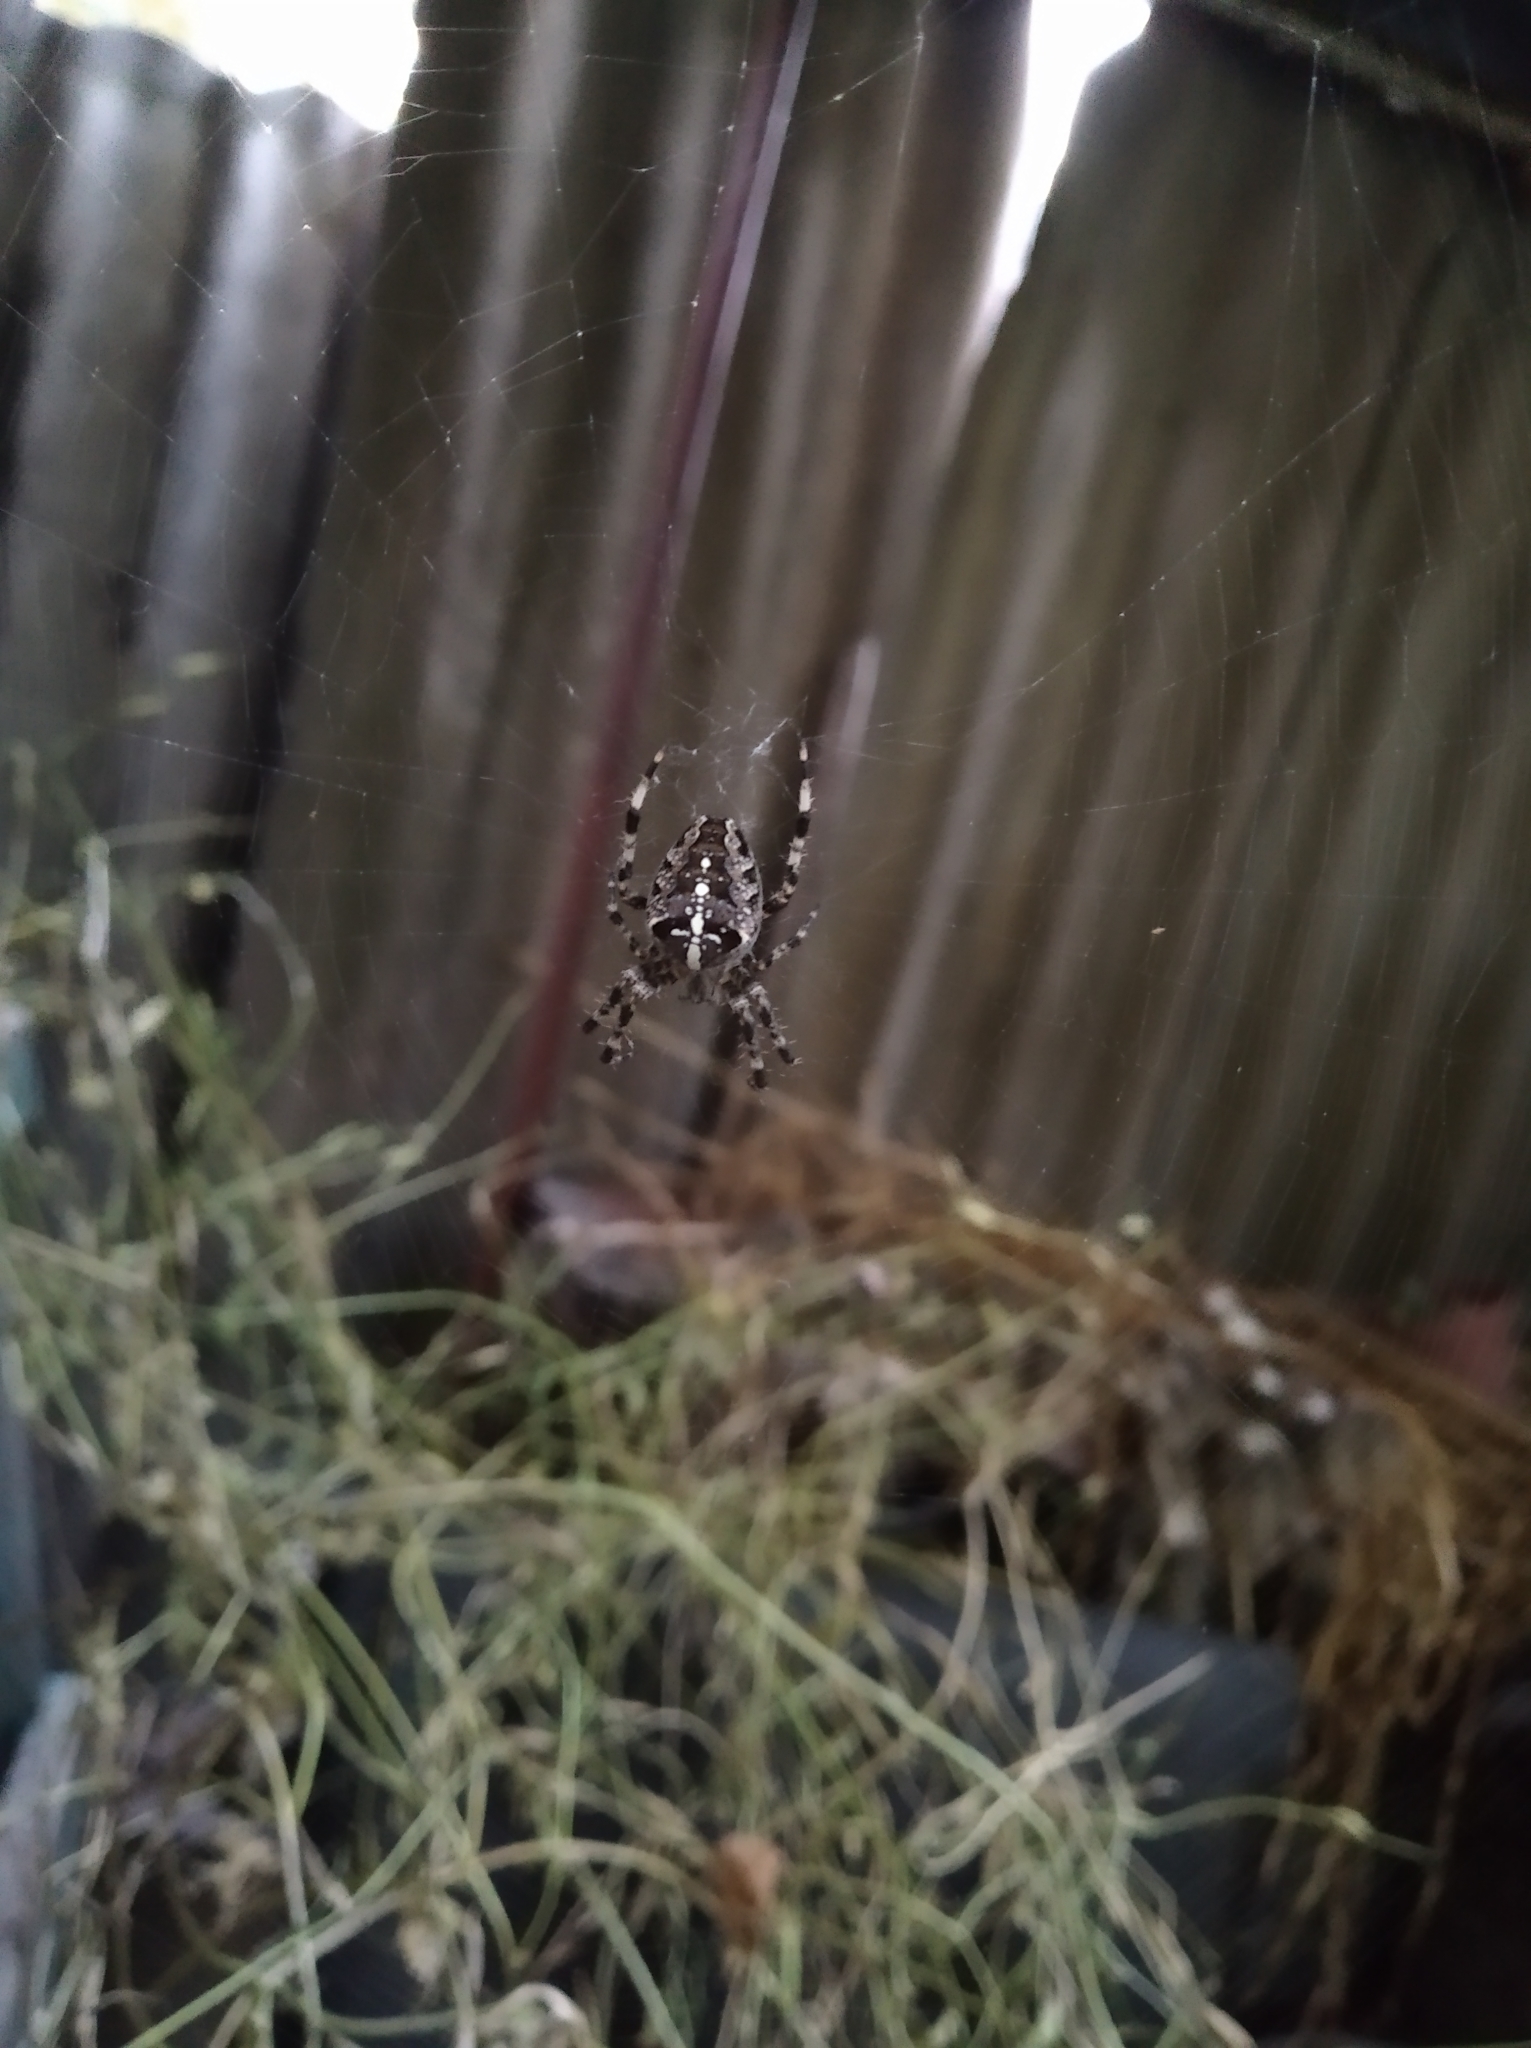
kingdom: Animalia
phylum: Arthropoda
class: Arachnida
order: Araneae
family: Araneidae
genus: Araneus
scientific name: Araneus diadematus
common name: Cross orbweaver
